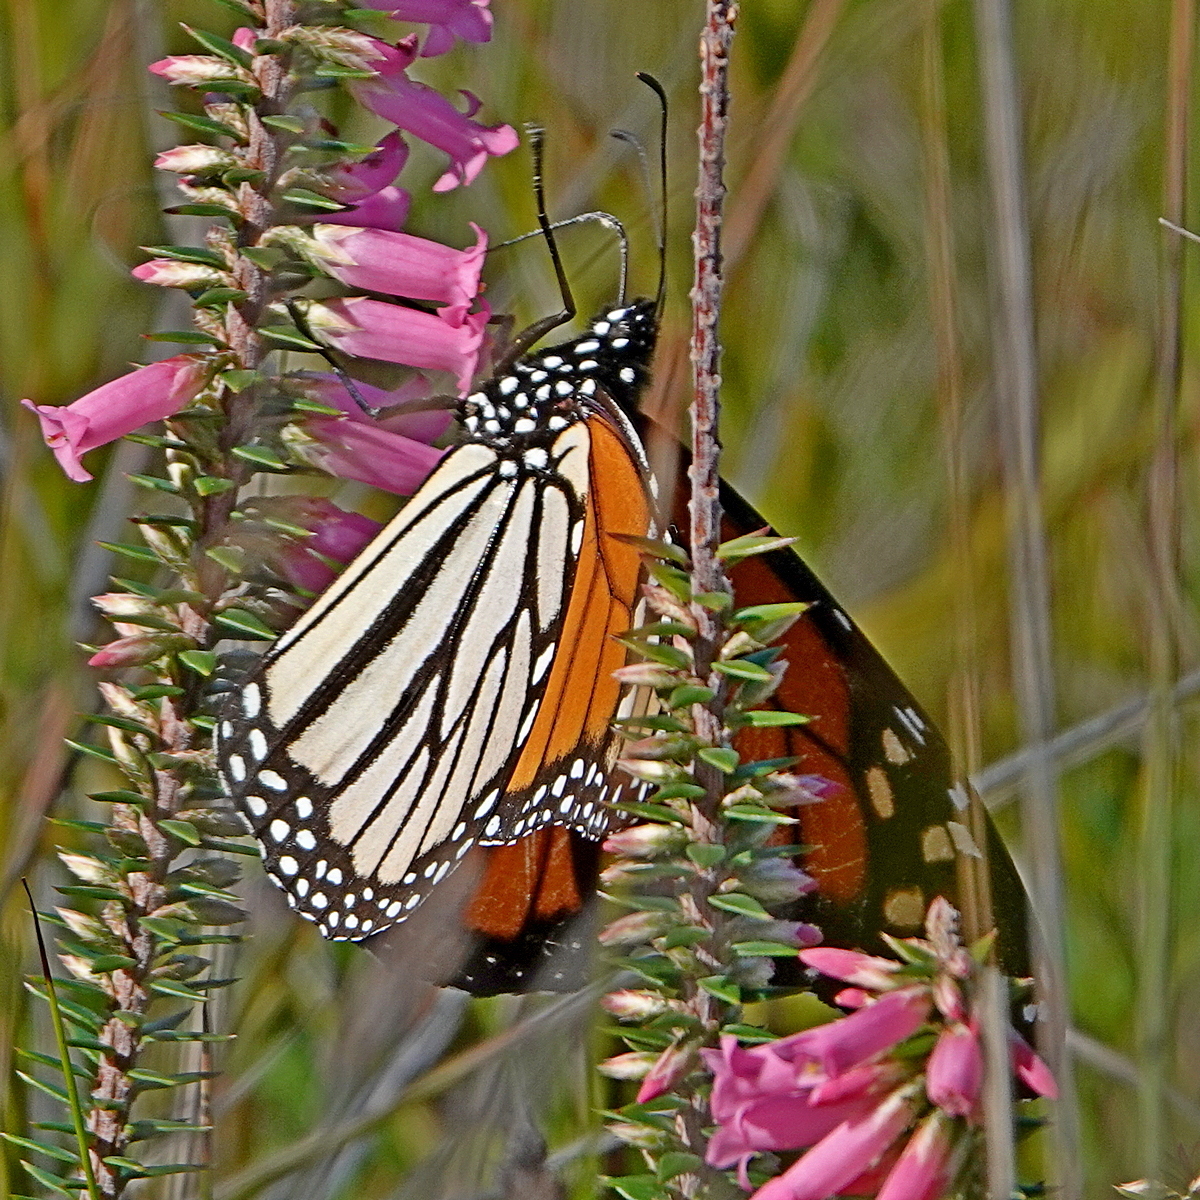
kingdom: Animalia
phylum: Arthropoda
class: Insecta
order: Lepidoptera
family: Nymphalidae
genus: Danaus
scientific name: Danaus plexippus
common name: Monarch
